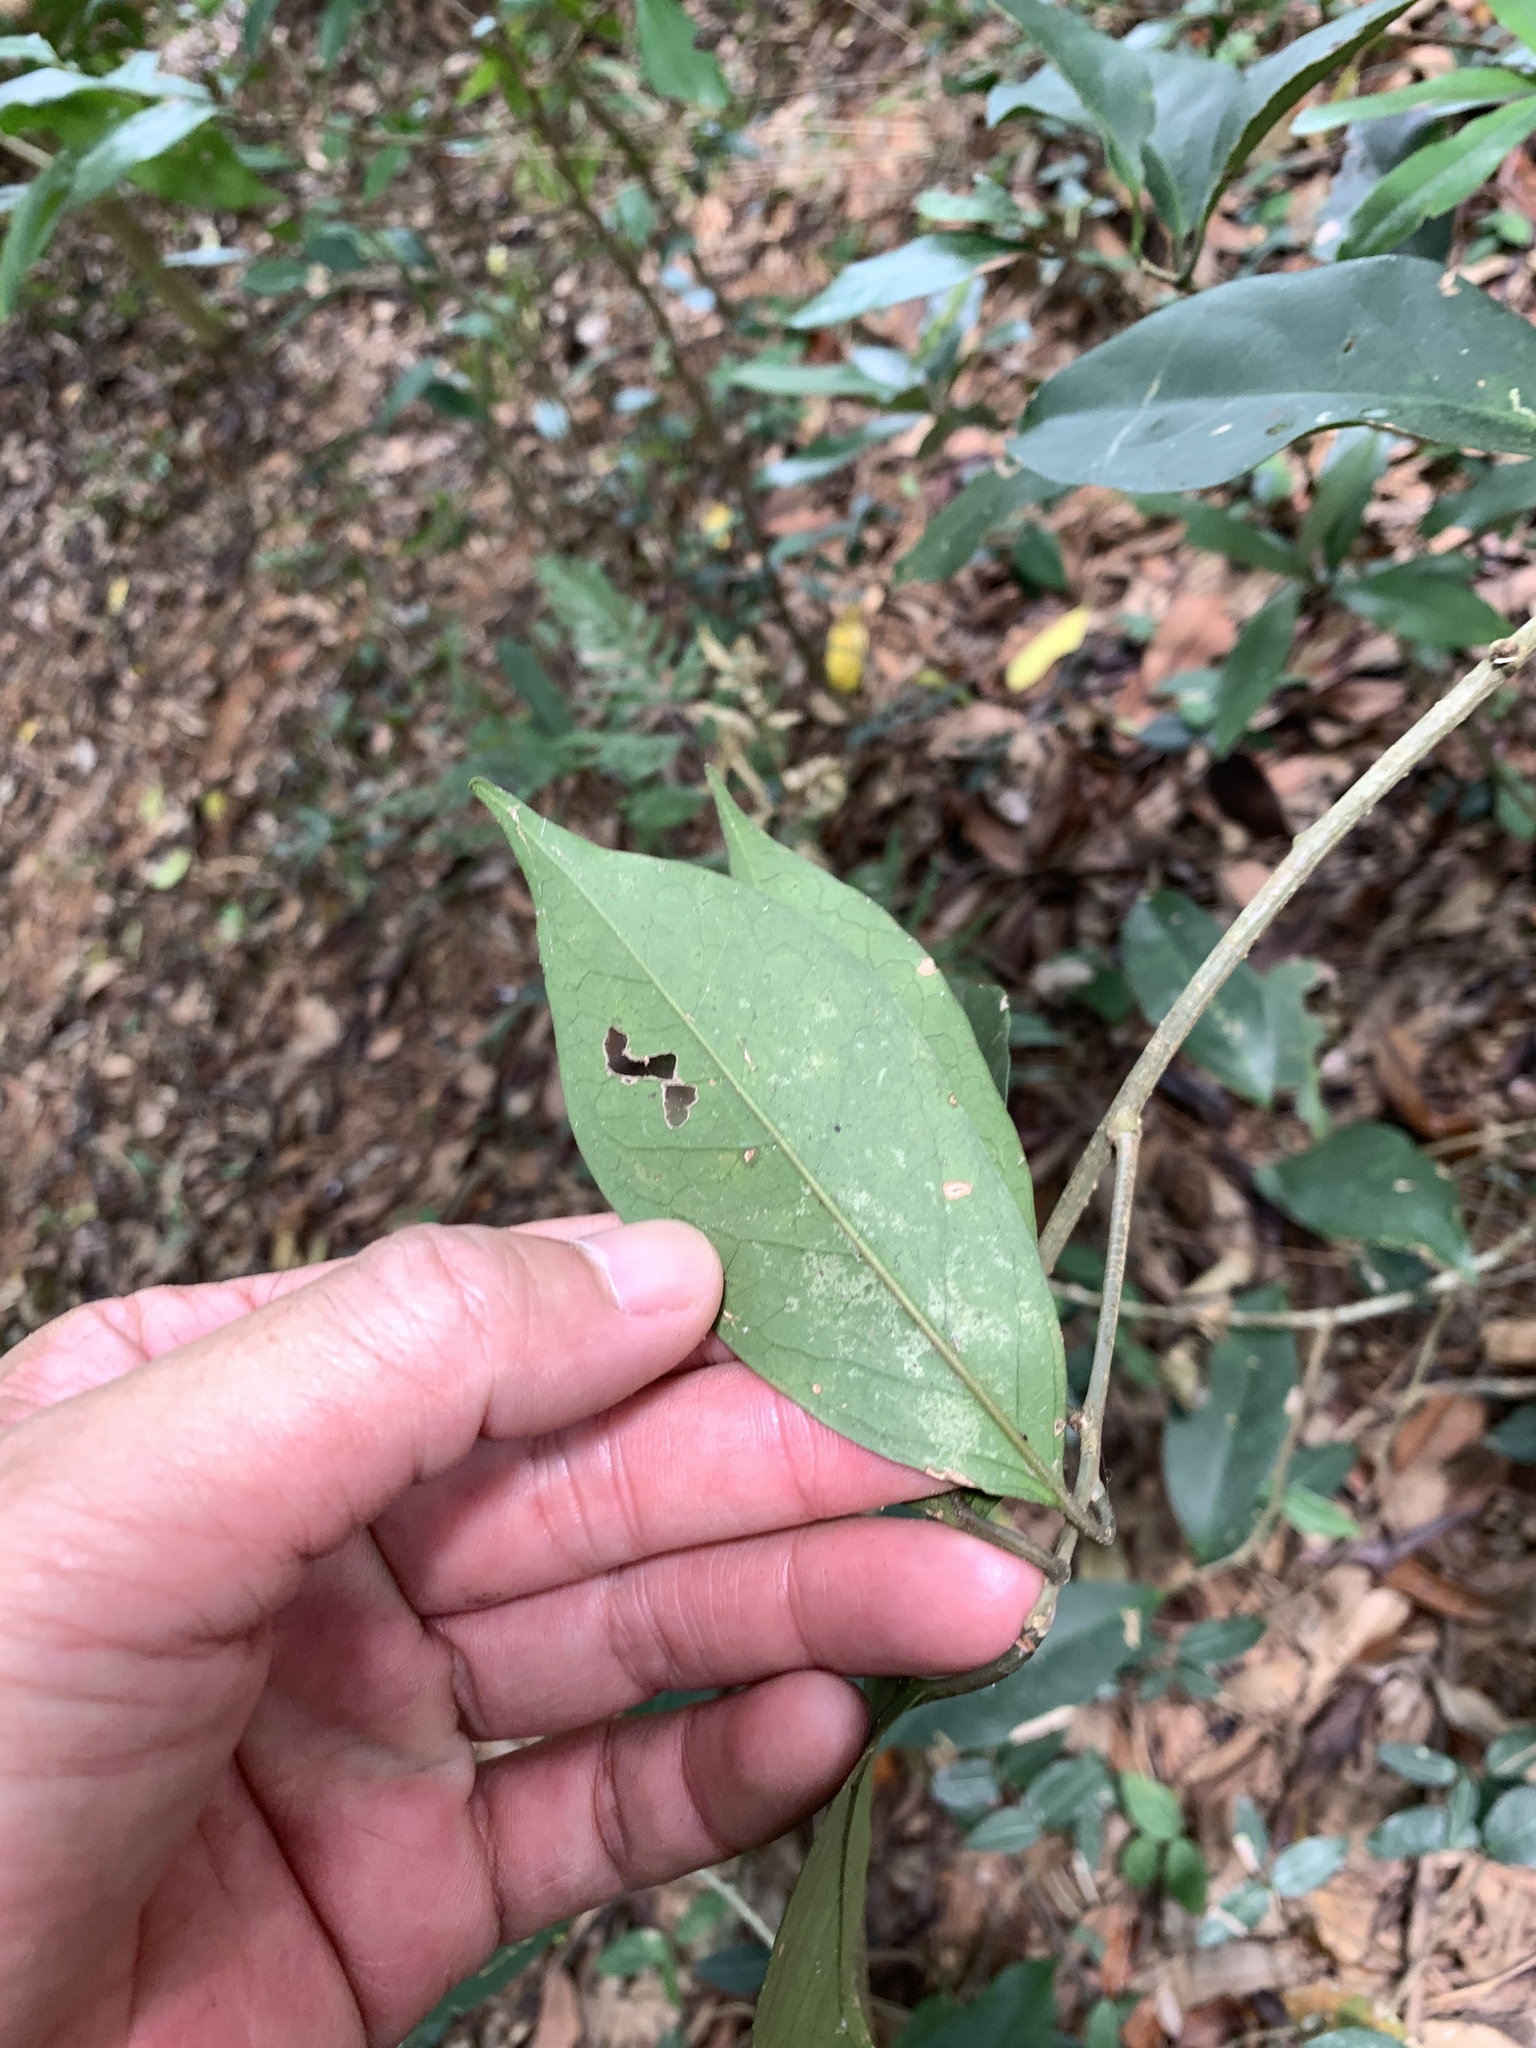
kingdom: Plantae
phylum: Tracheophyta
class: Magnoliopsida
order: Solanales
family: Convolvulaceae
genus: Erycibe
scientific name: Erycibe henryi
